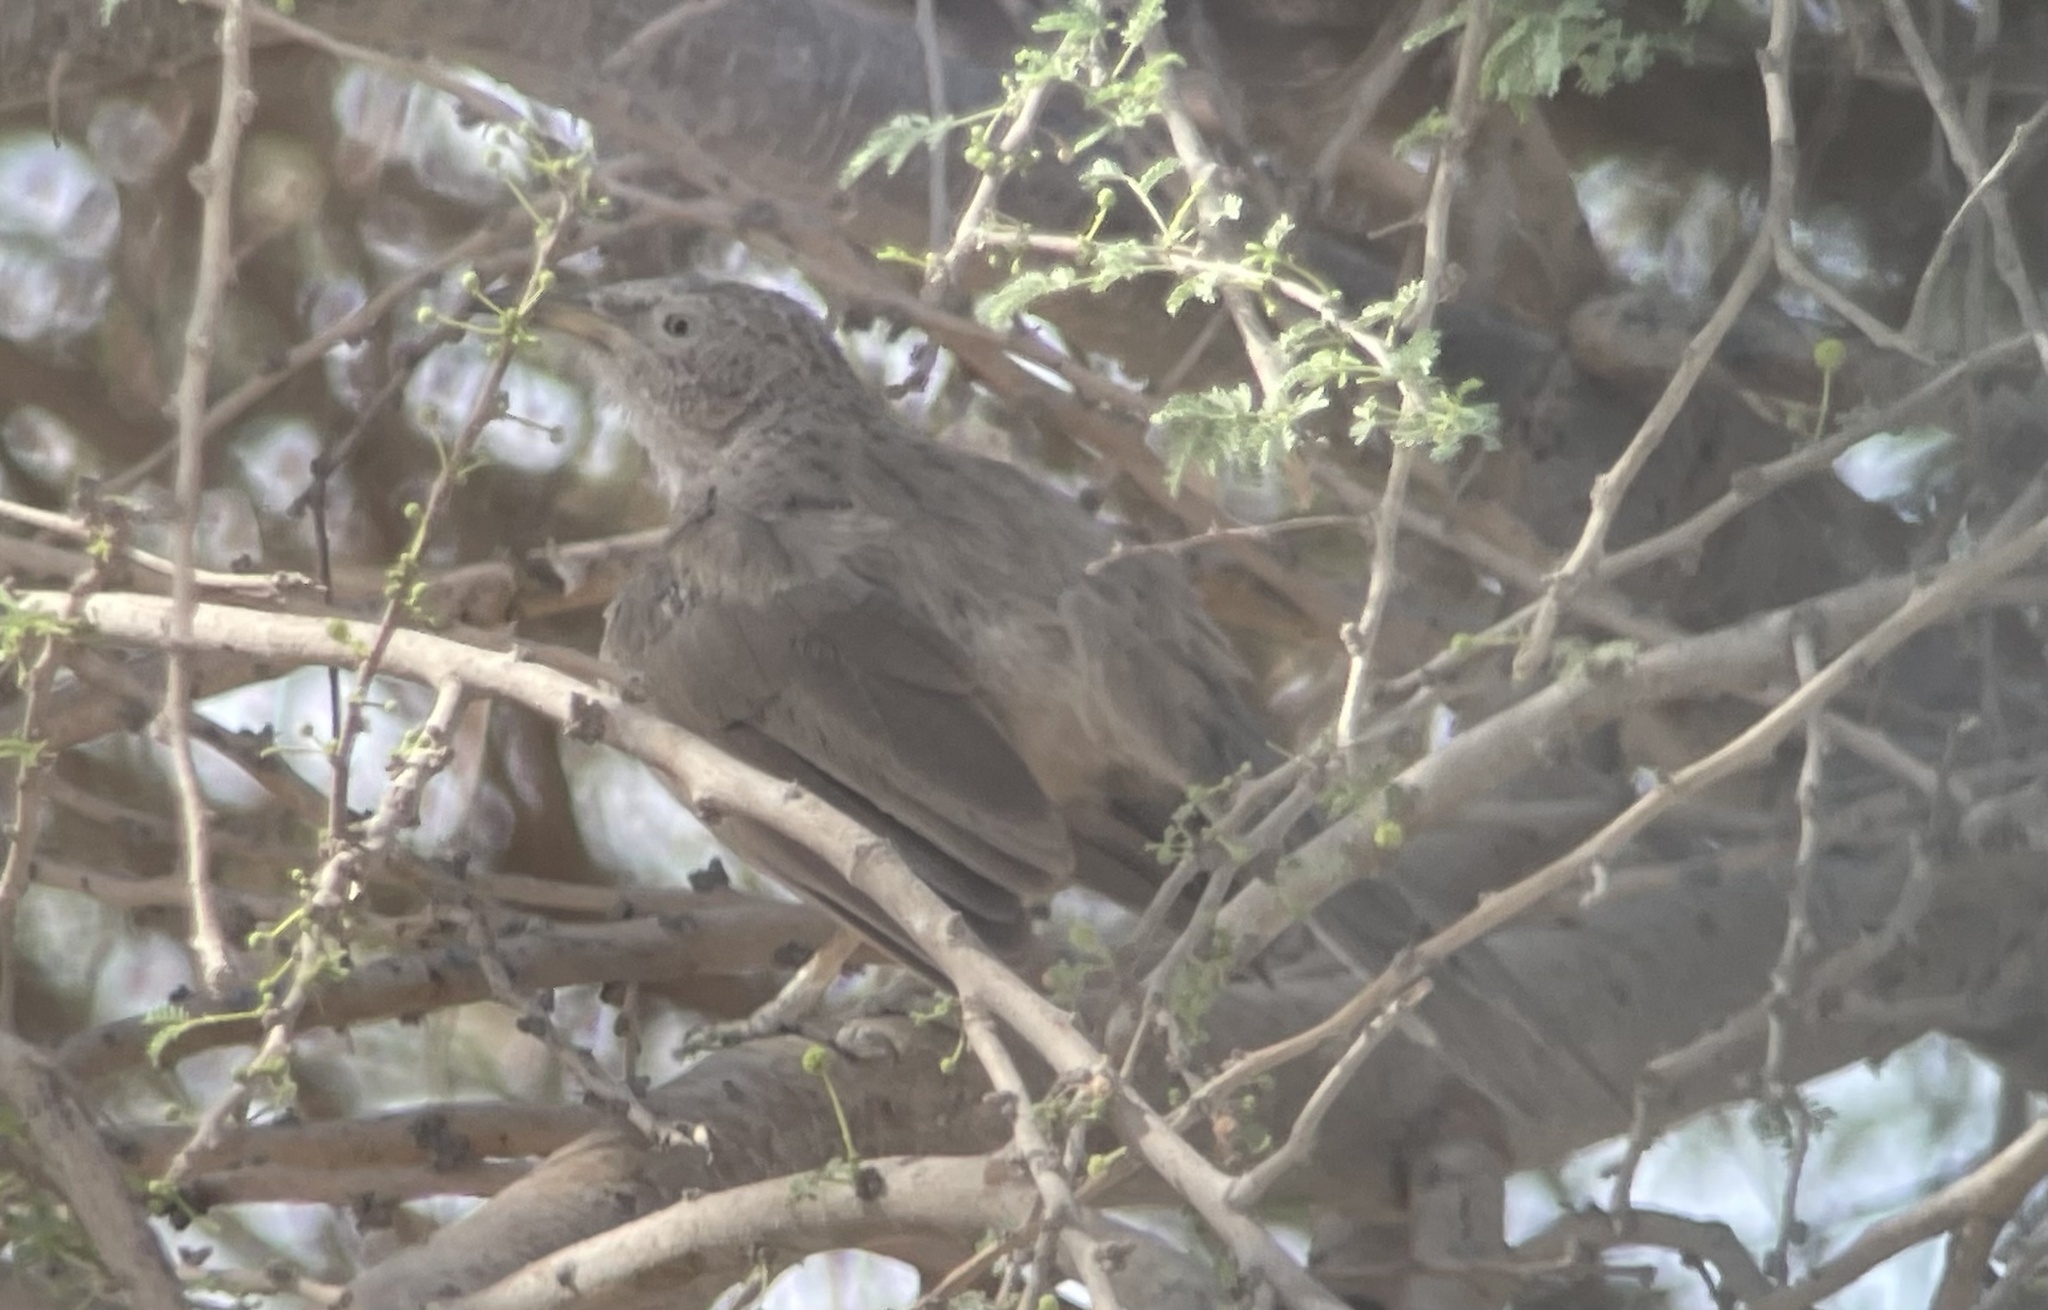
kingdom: Animalia
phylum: Chordata
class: Aves
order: Passeriformes
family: Leiothrichidae
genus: Turdoides
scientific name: Turdoides squamiceps
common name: Arabian babbler
